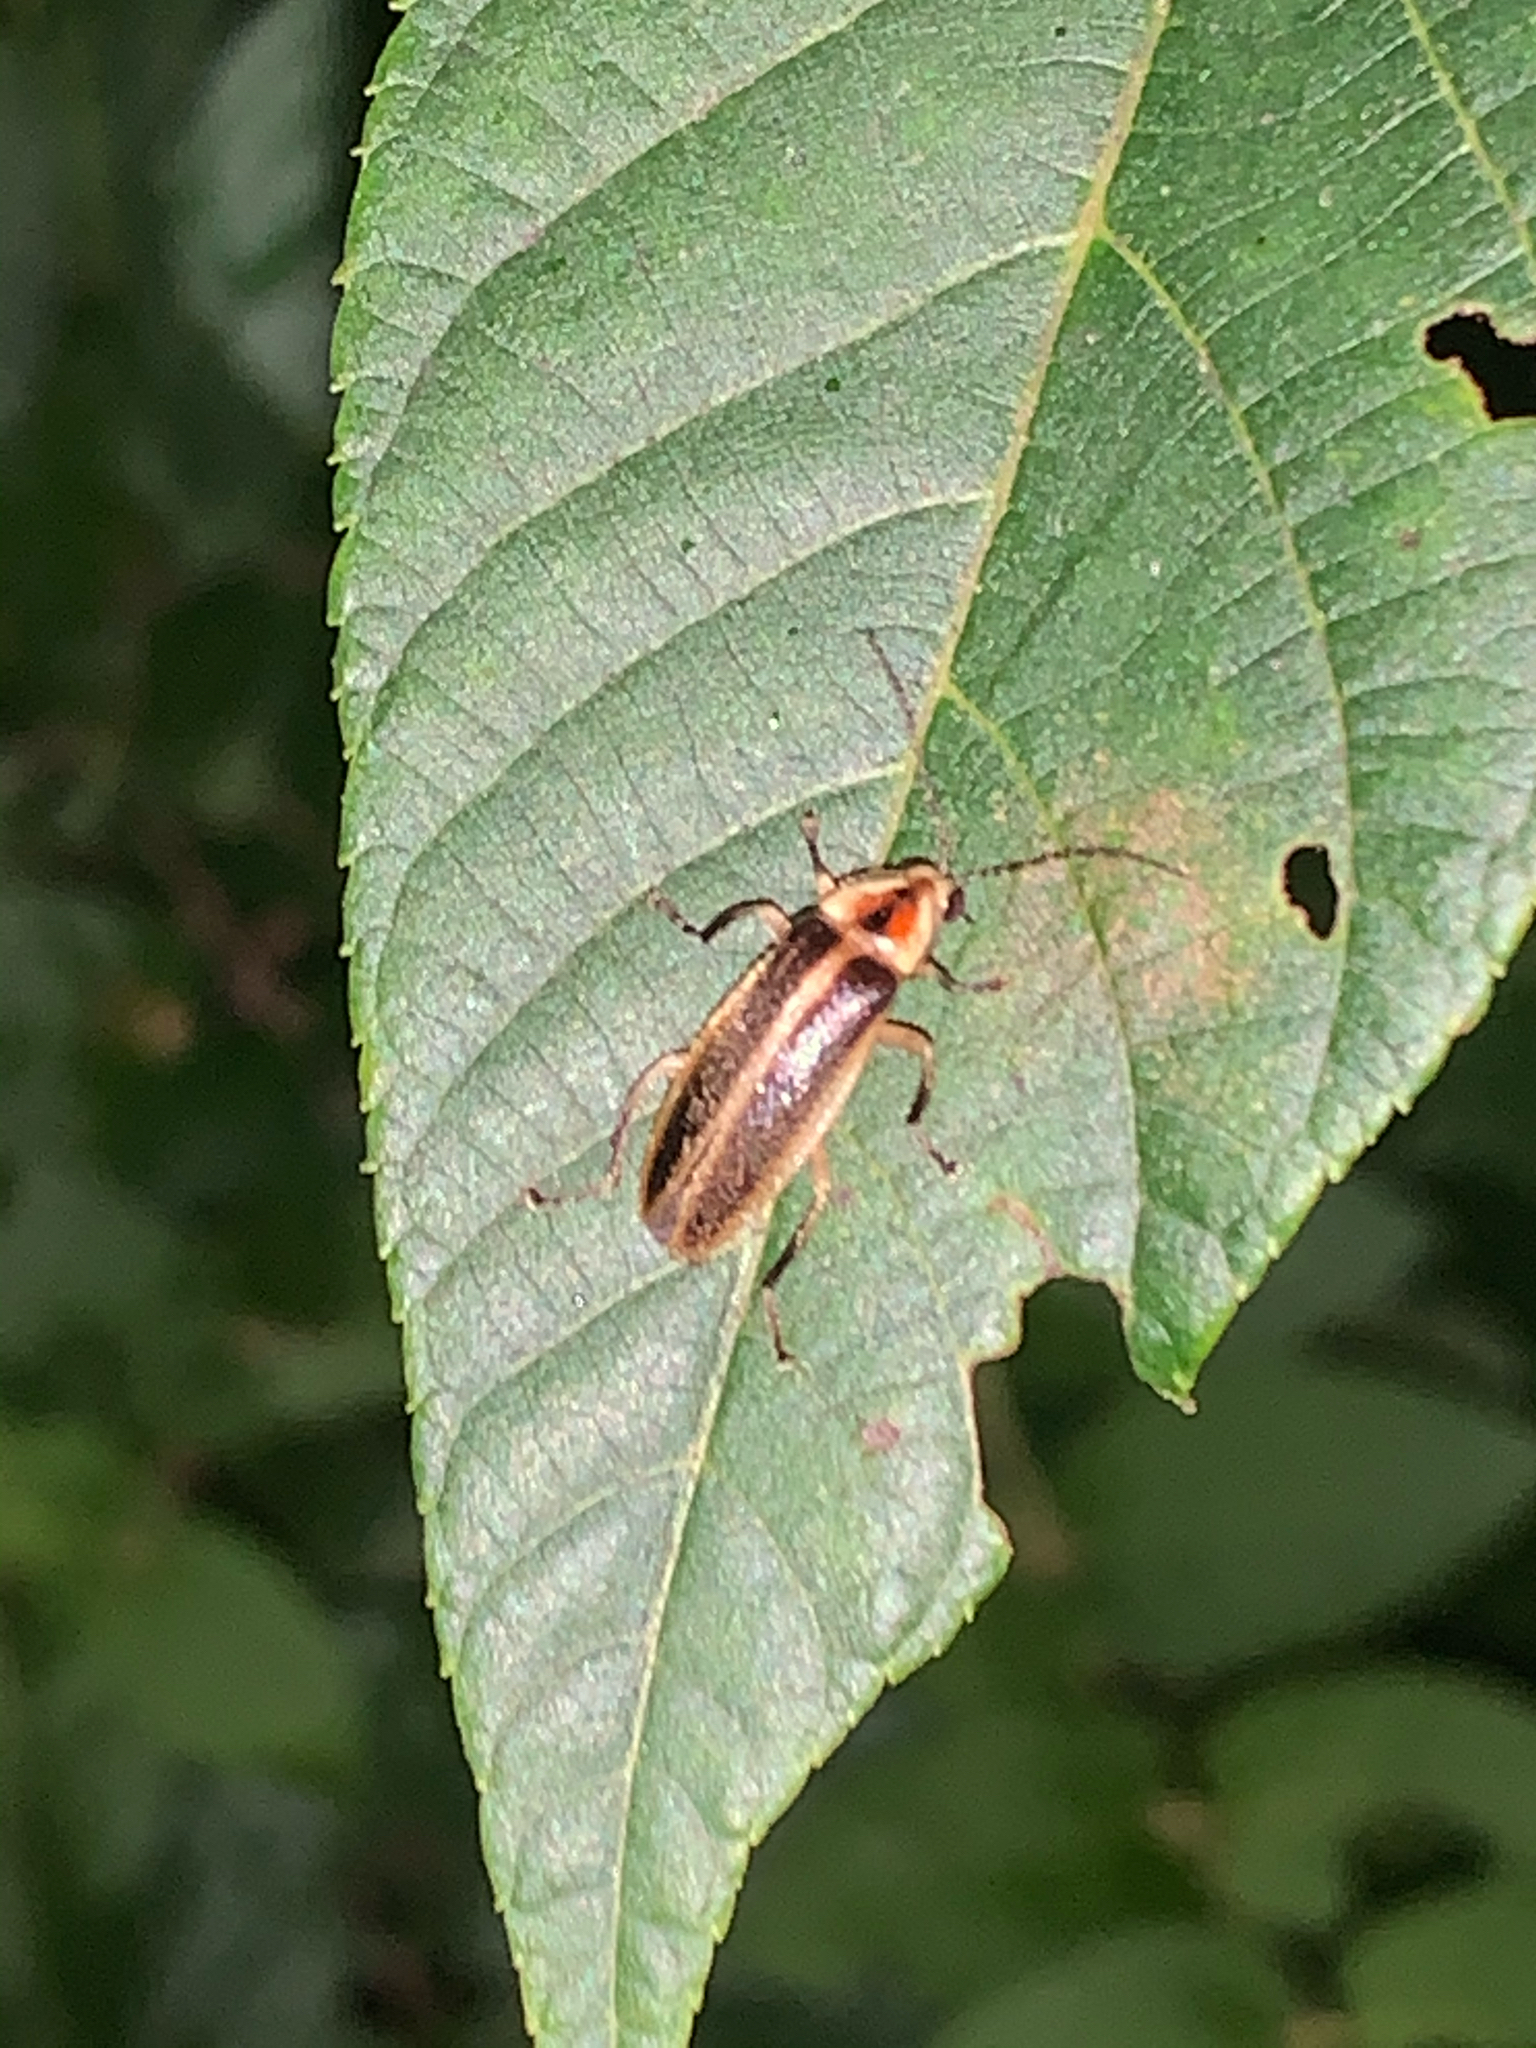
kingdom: Animalia
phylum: Arthropoda
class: Insecta
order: Coleoptera
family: Lampyridae
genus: Photuris
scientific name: Photuris
